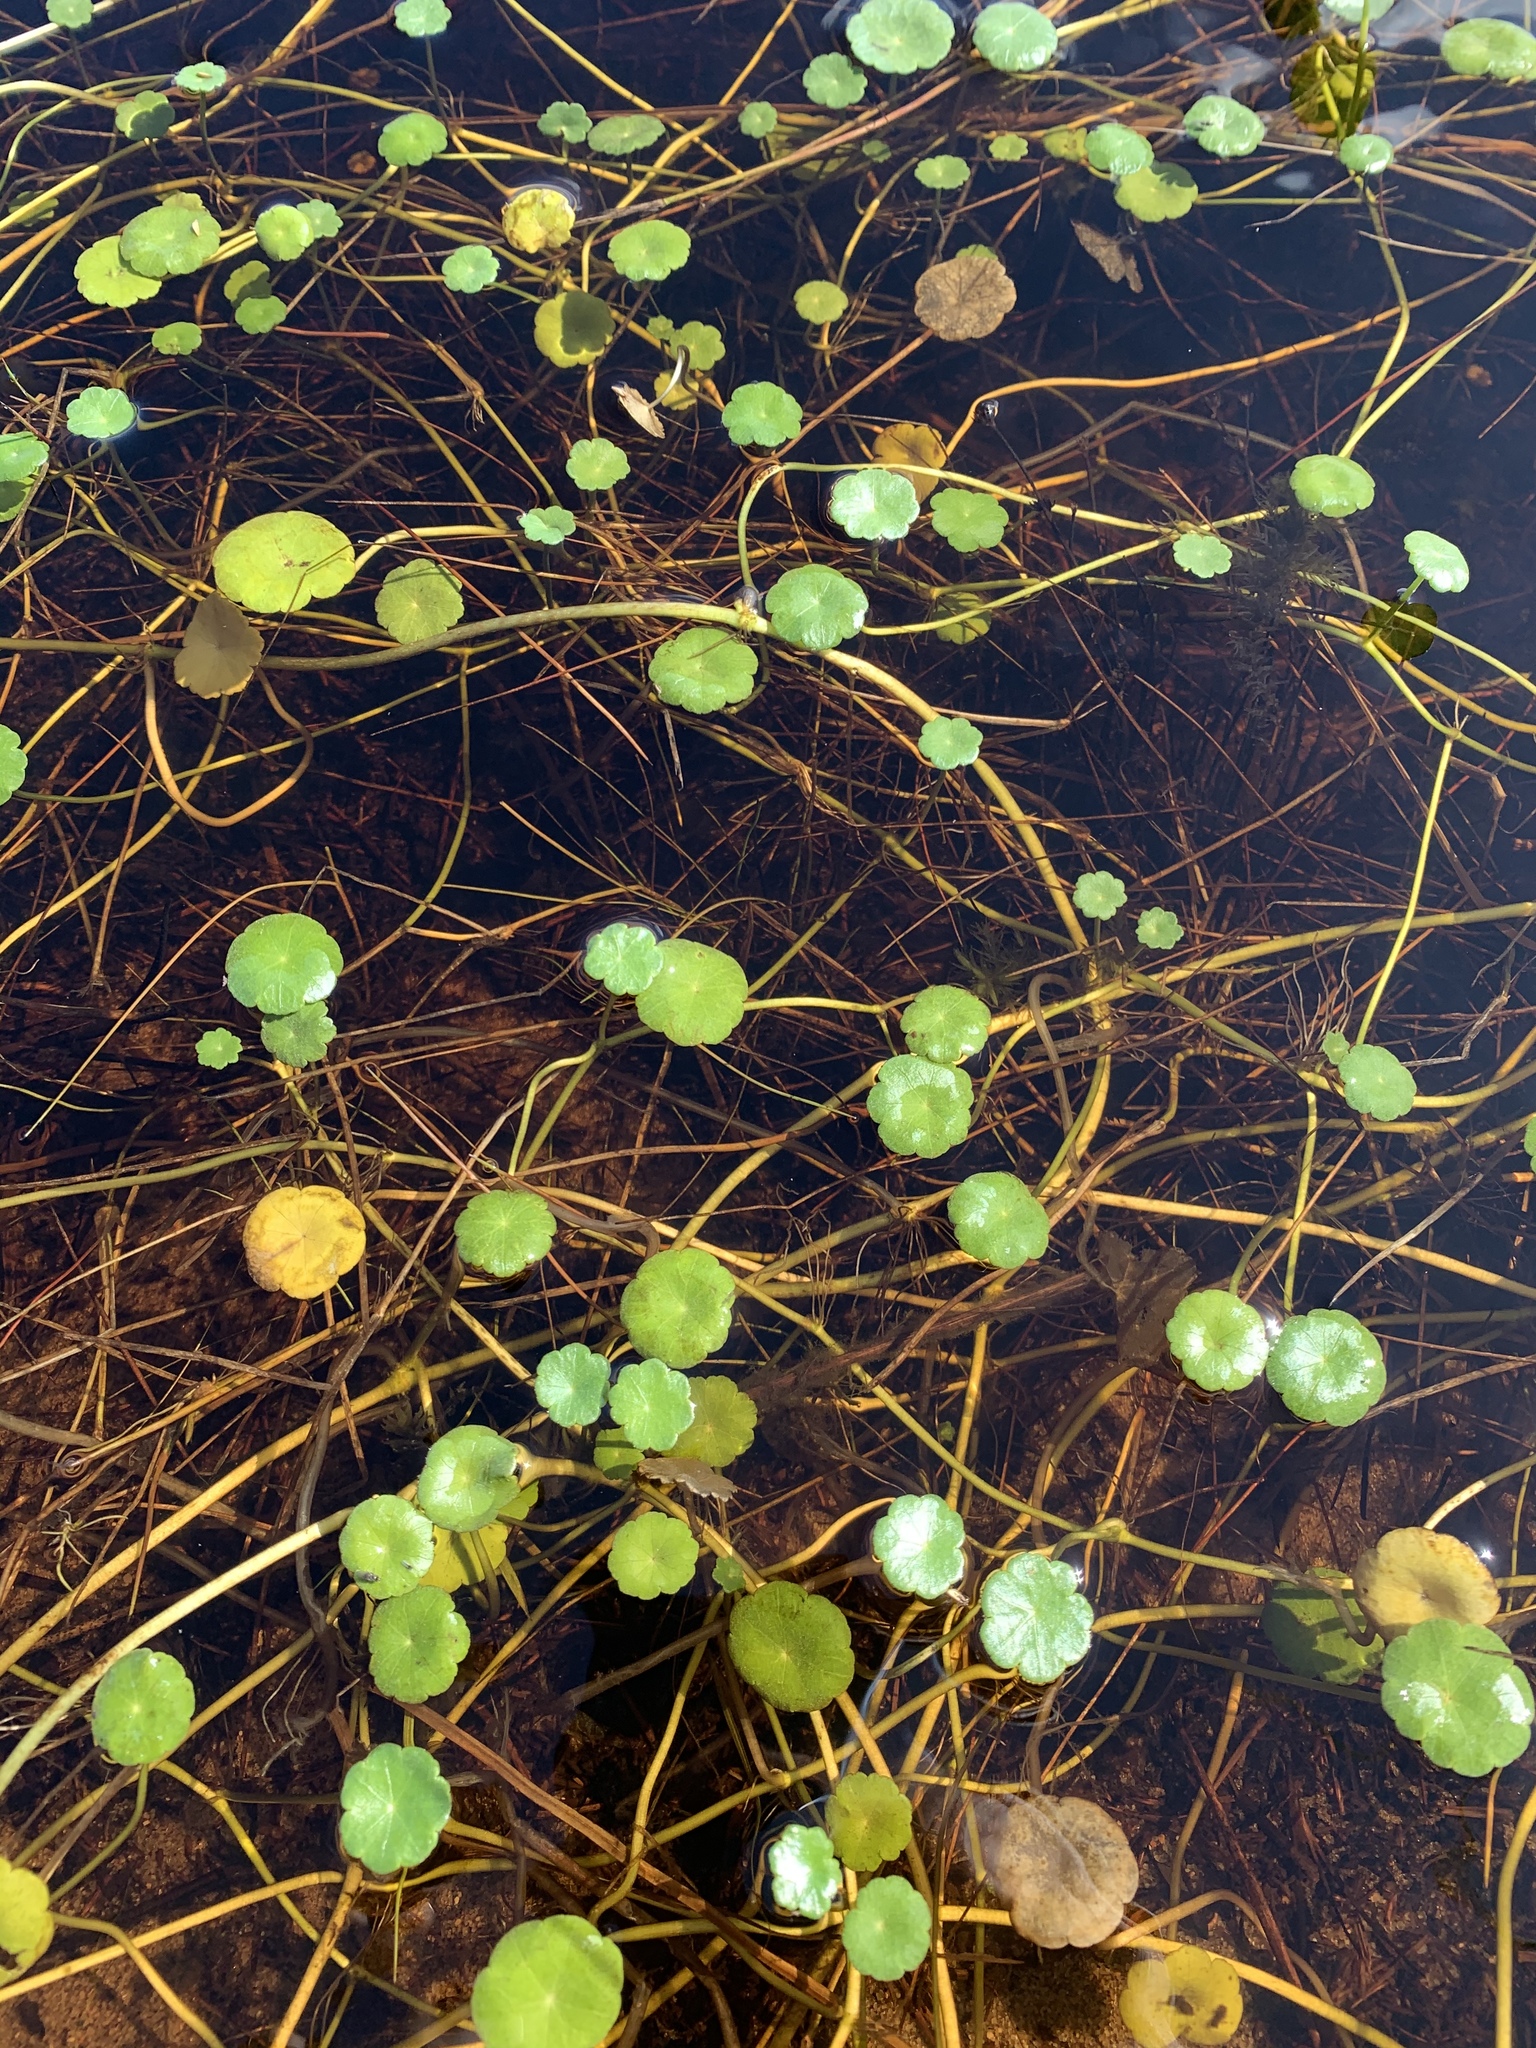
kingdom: Plantae
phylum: Tracheophyta
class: Magnoliopsida
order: Apiales
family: Araliaceae
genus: Hydrocotyle
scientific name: Hydrocotyle vulgaris
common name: Marsh pennywort
